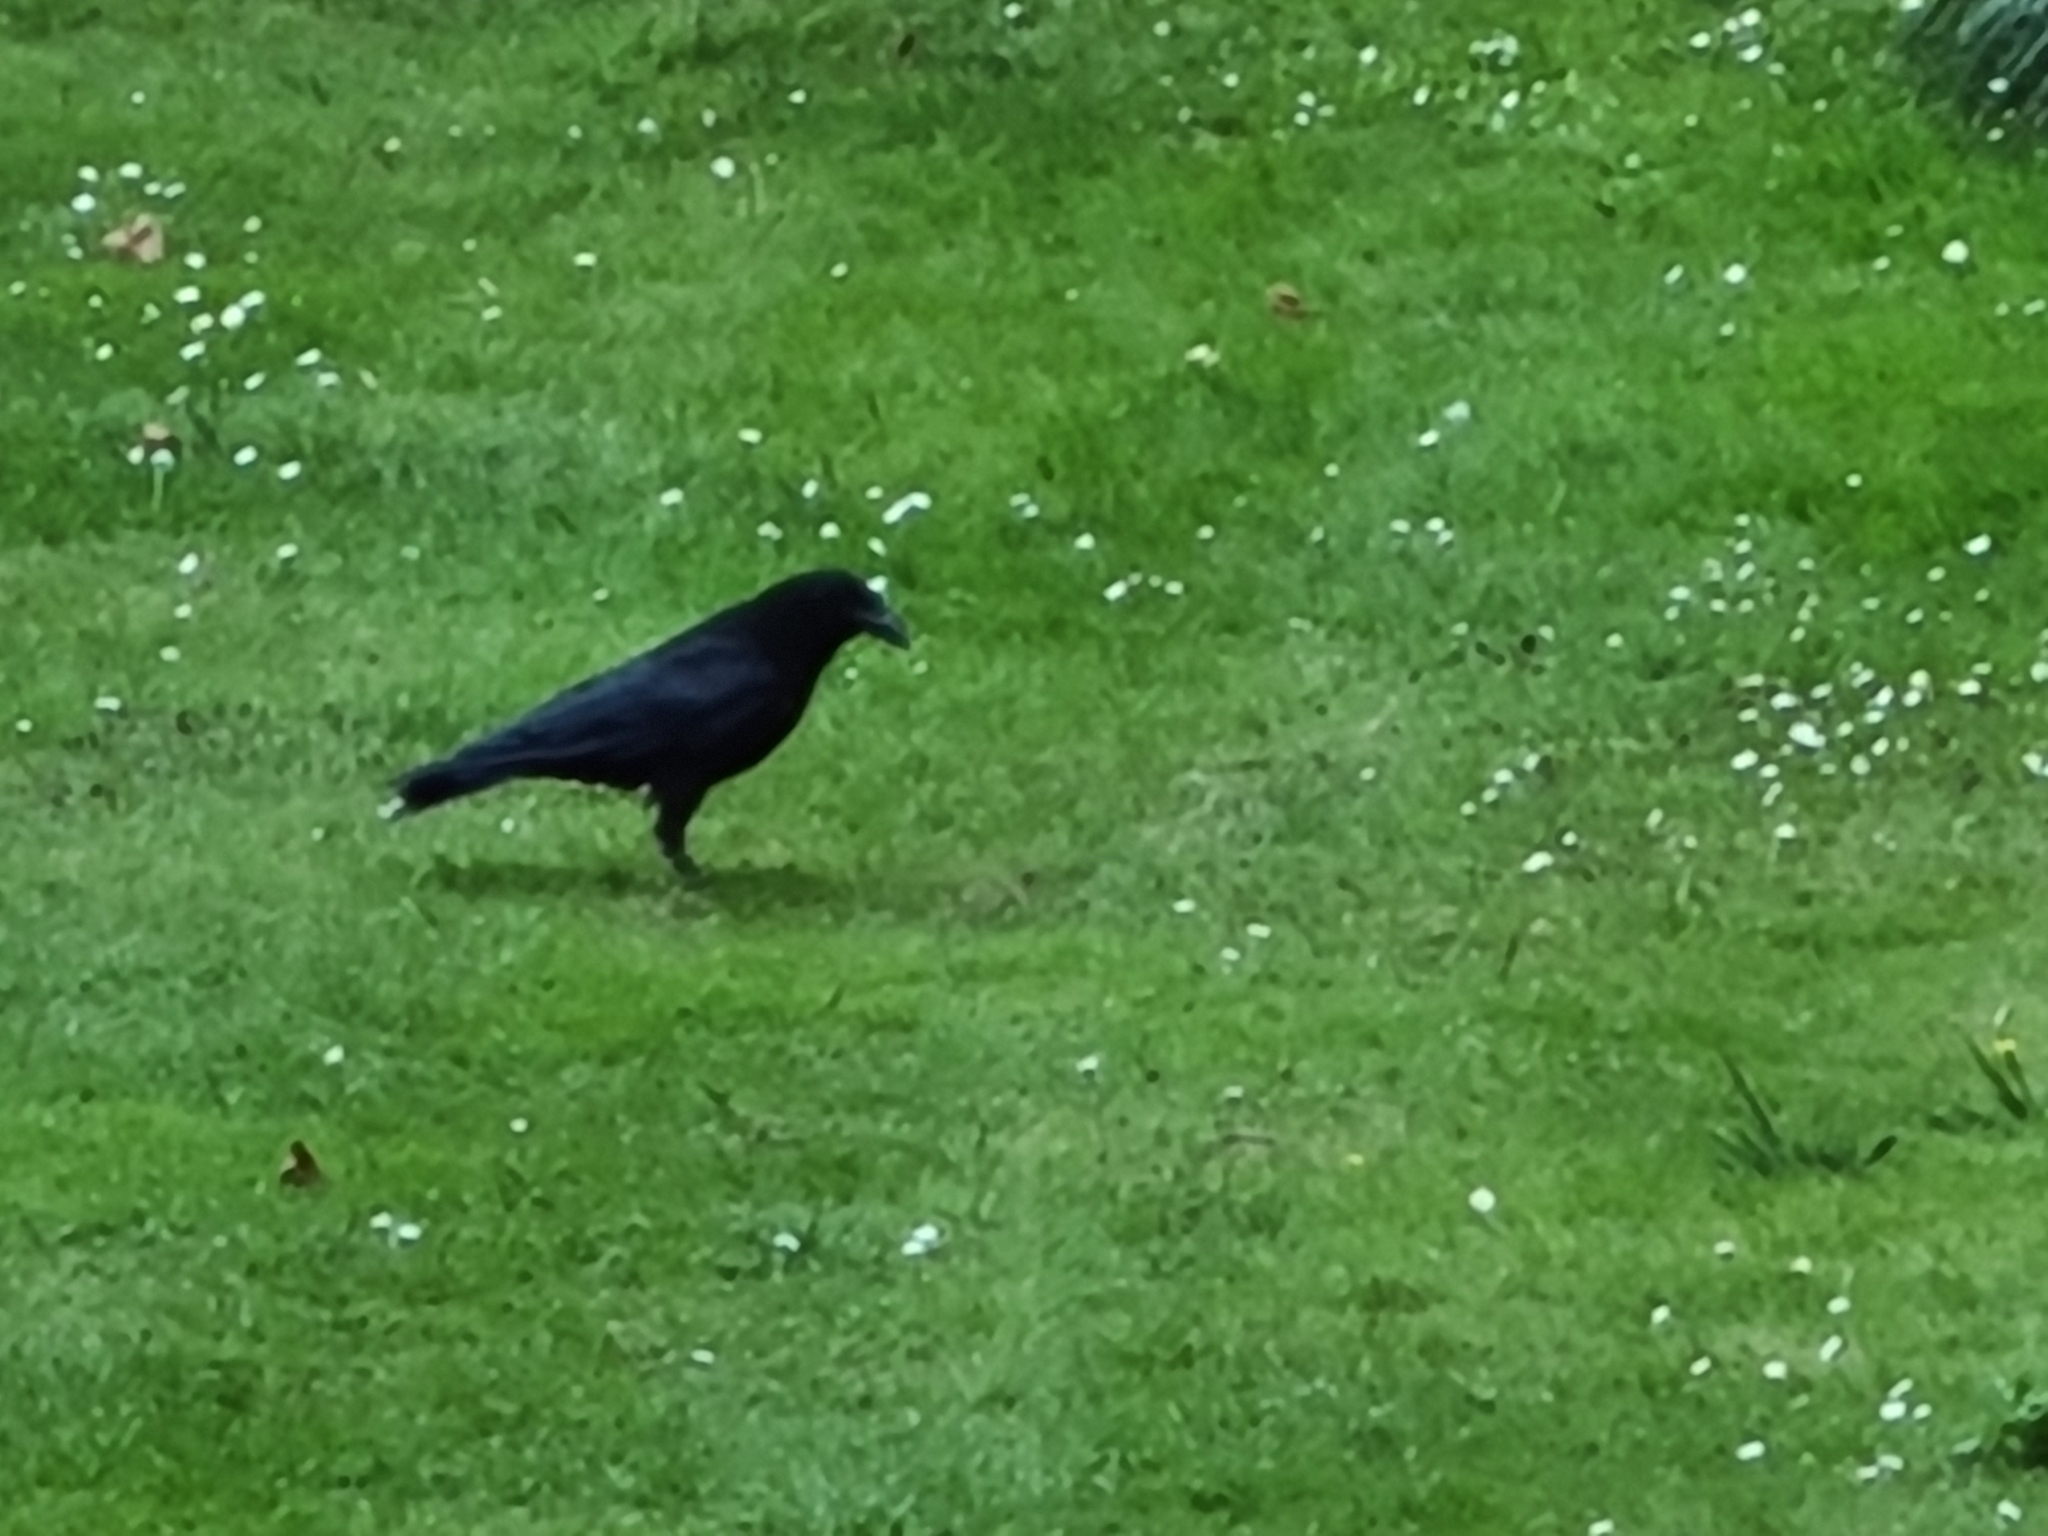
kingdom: Animalia
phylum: Chordata
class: Aves
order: Passeriformes
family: Corvidae
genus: Corvus
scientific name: Corvus corone
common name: Carrion crow
